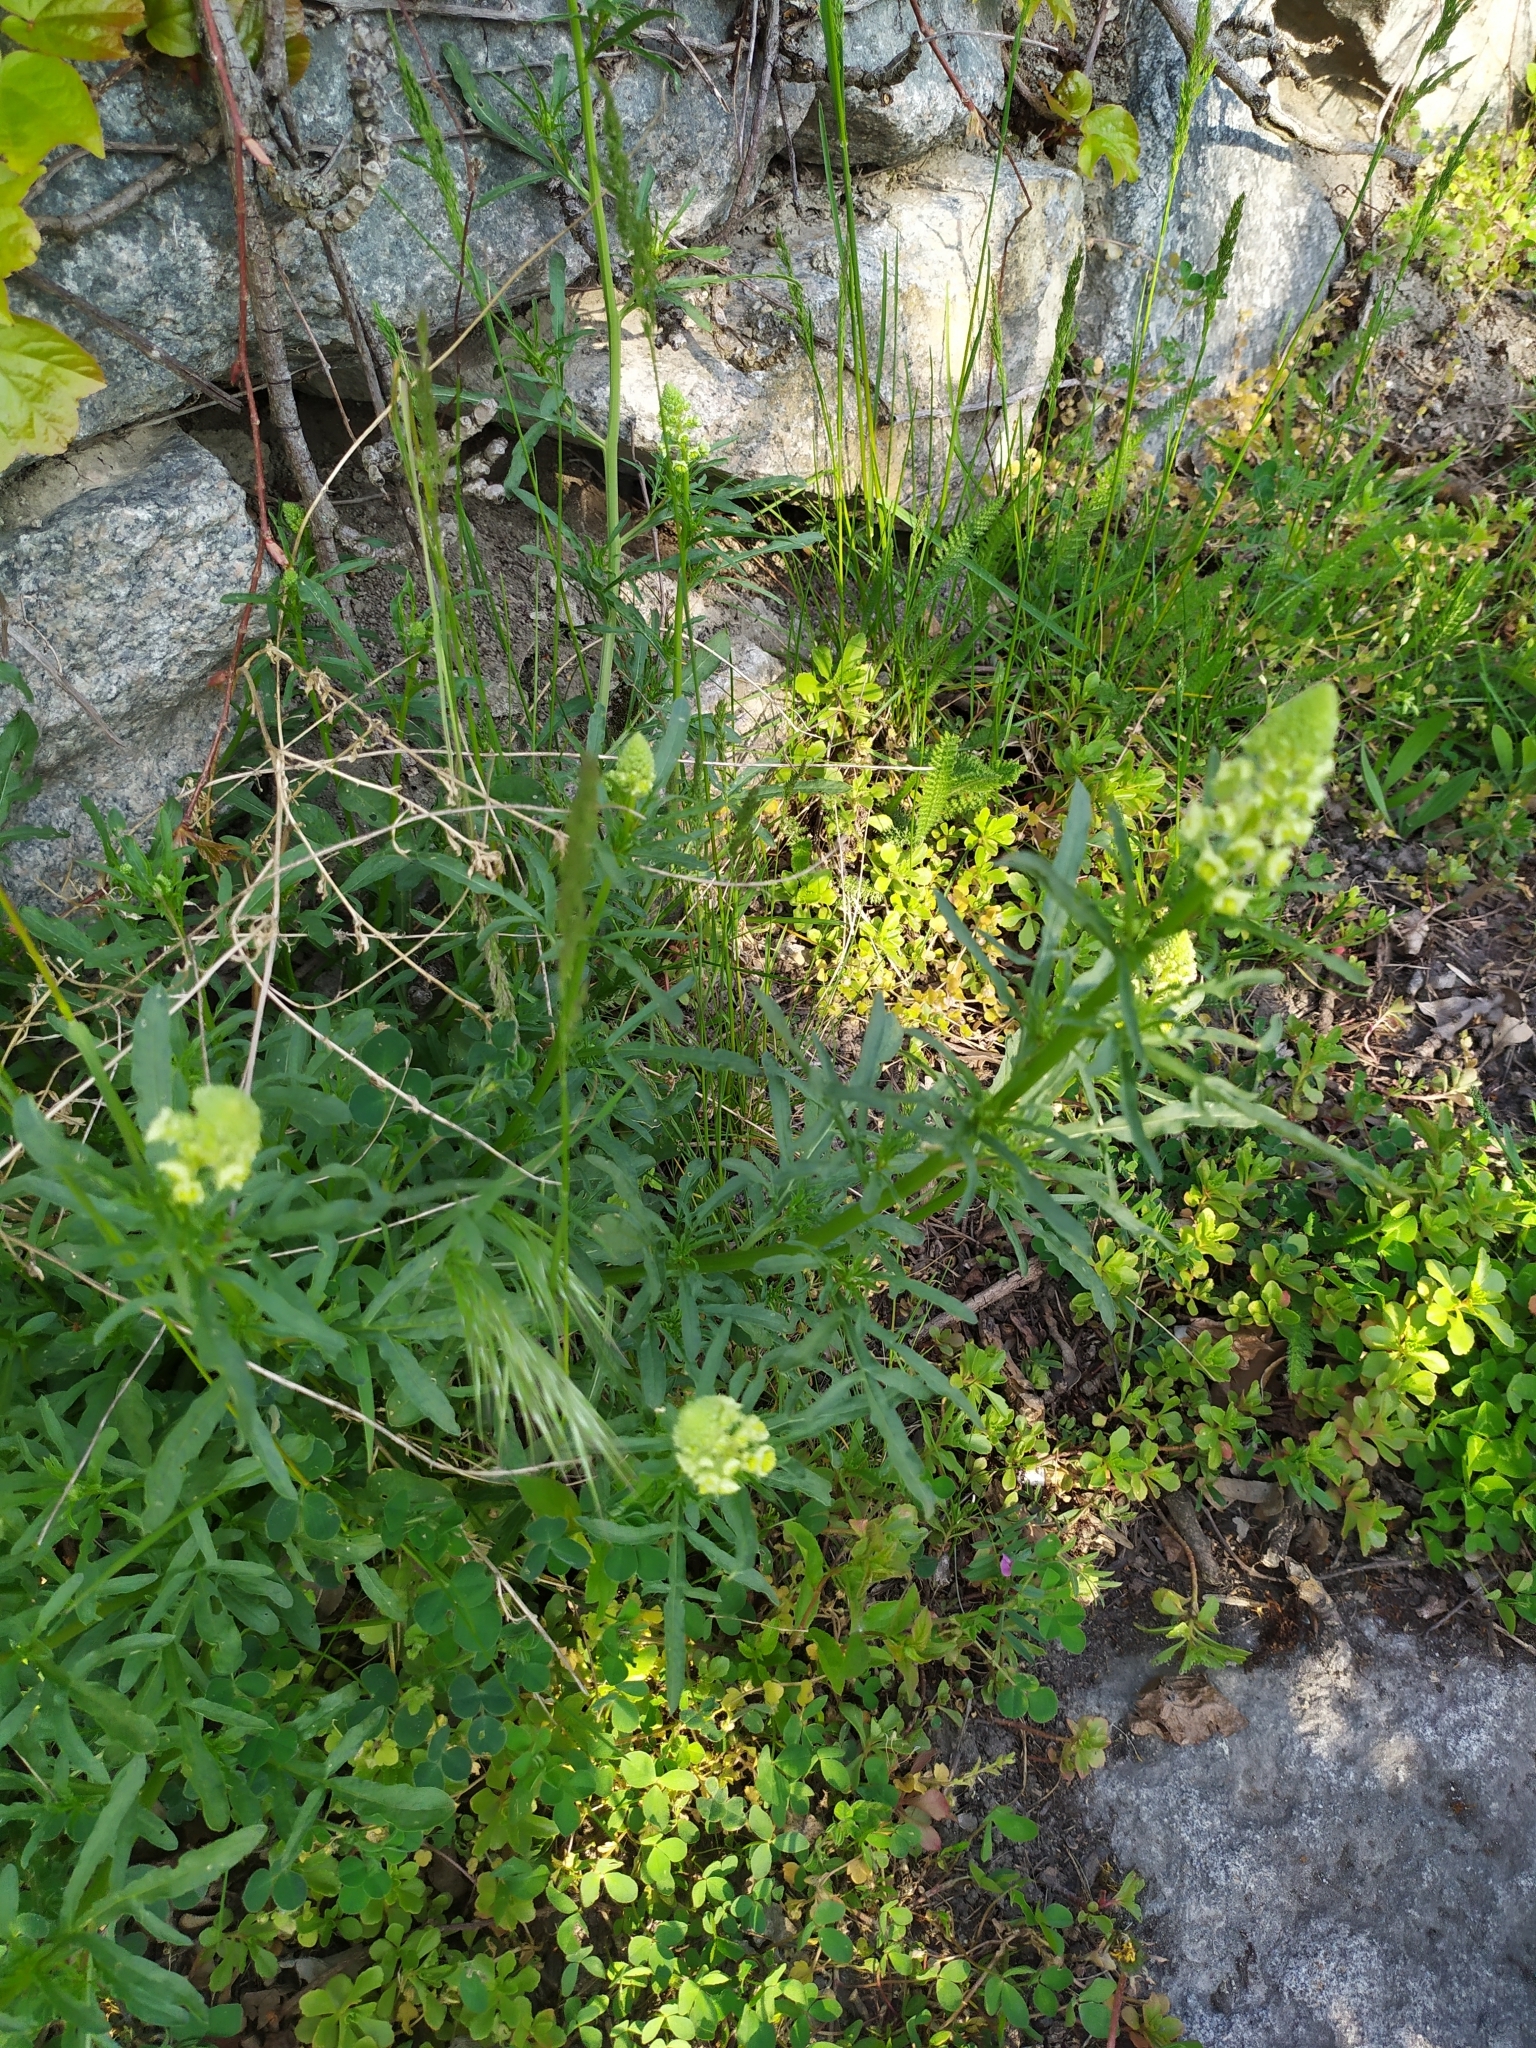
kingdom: Plantae
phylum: Tracheophyta
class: Magnoliopsida
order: Brassicales
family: Resedaceae
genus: Reseda
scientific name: Reseda lutea
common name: Wild mignonette
